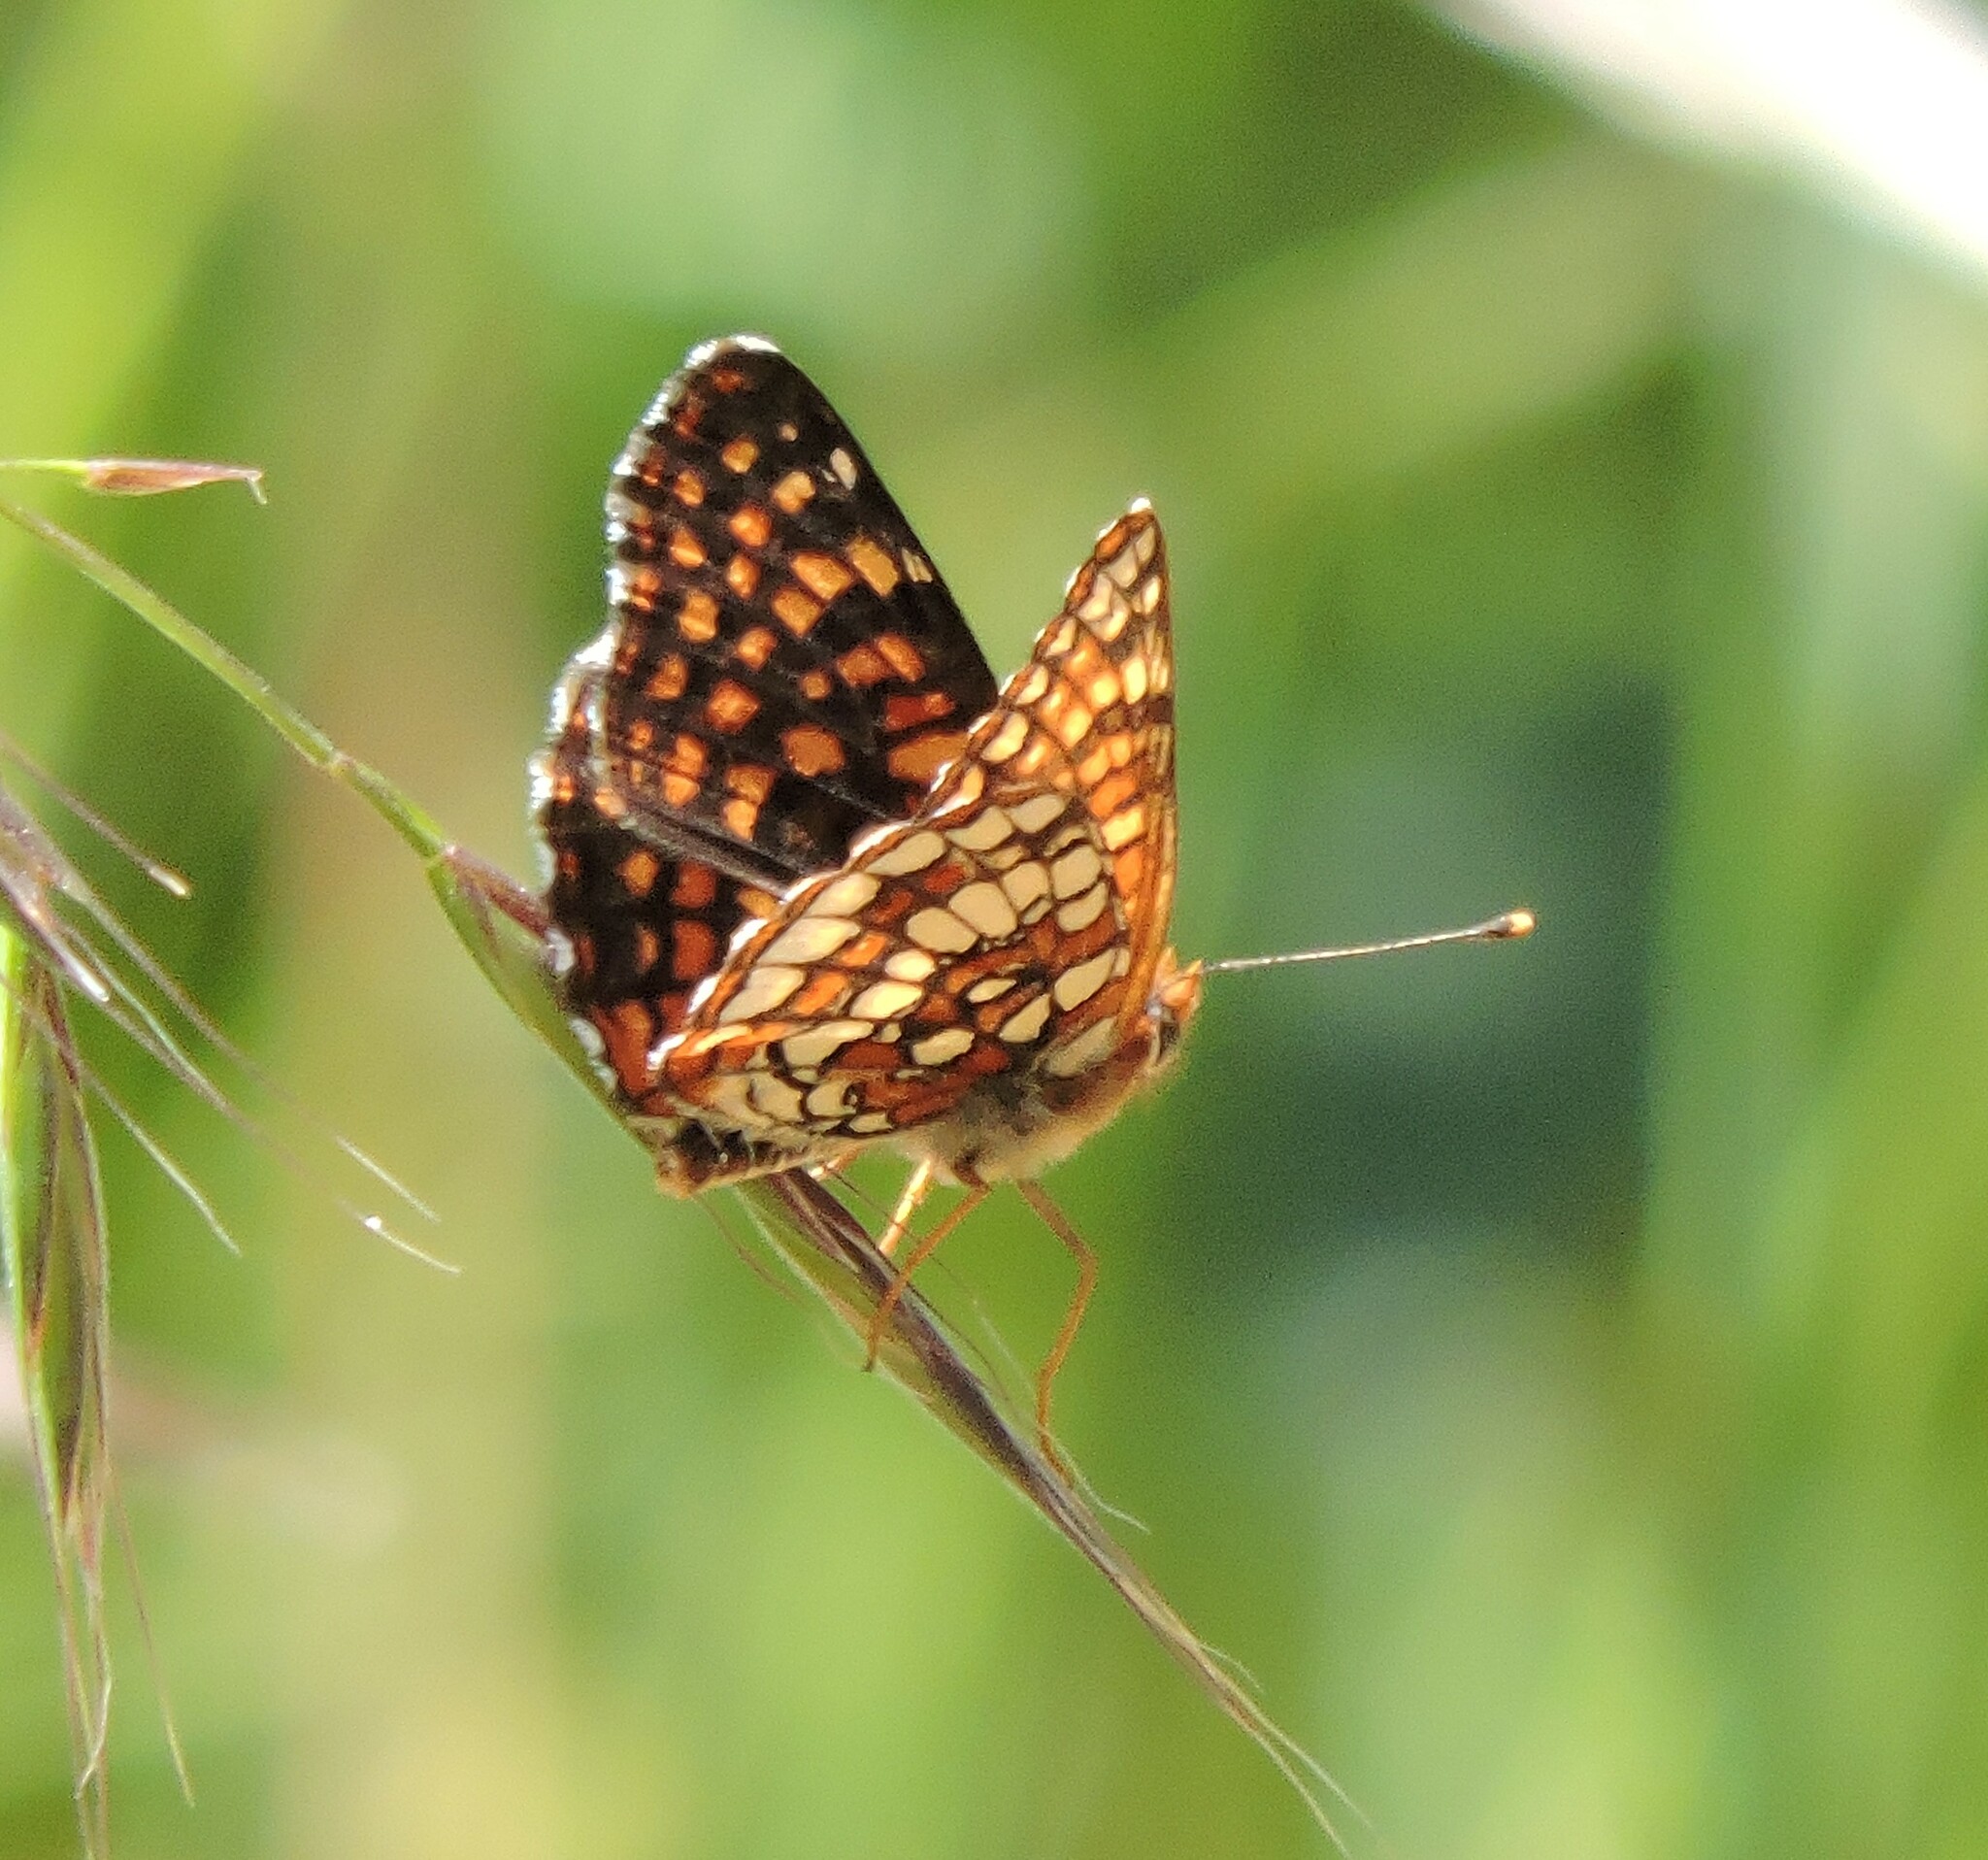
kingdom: Animalia
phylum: Arthropoda
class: Insecta
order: Lepidoptera
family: Nymphalidae
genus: Chlosyne
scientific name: Chlosyne palla
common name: Northern checkerspot
